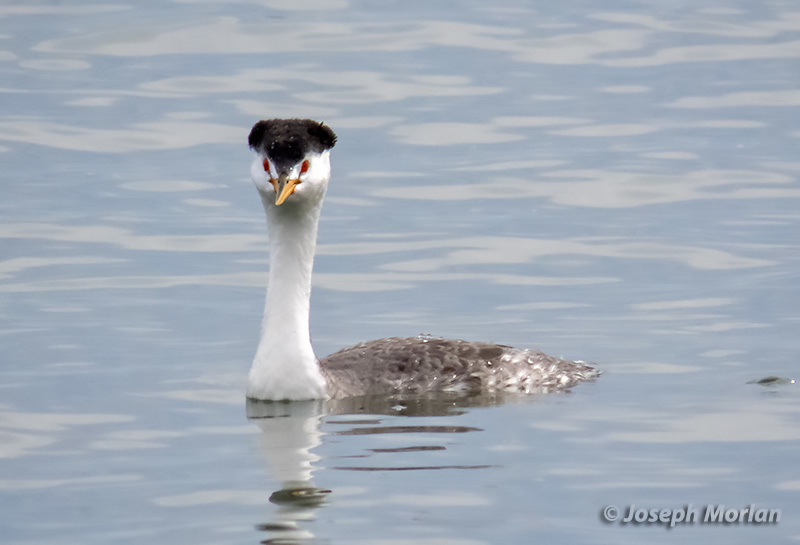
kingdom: Animalia
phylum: Chordata
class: Aves
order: Podicipediformes
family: Podicipedidae
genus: Aechmophorus
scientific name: Aechmophorus clarkii
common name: Clark's grebe
